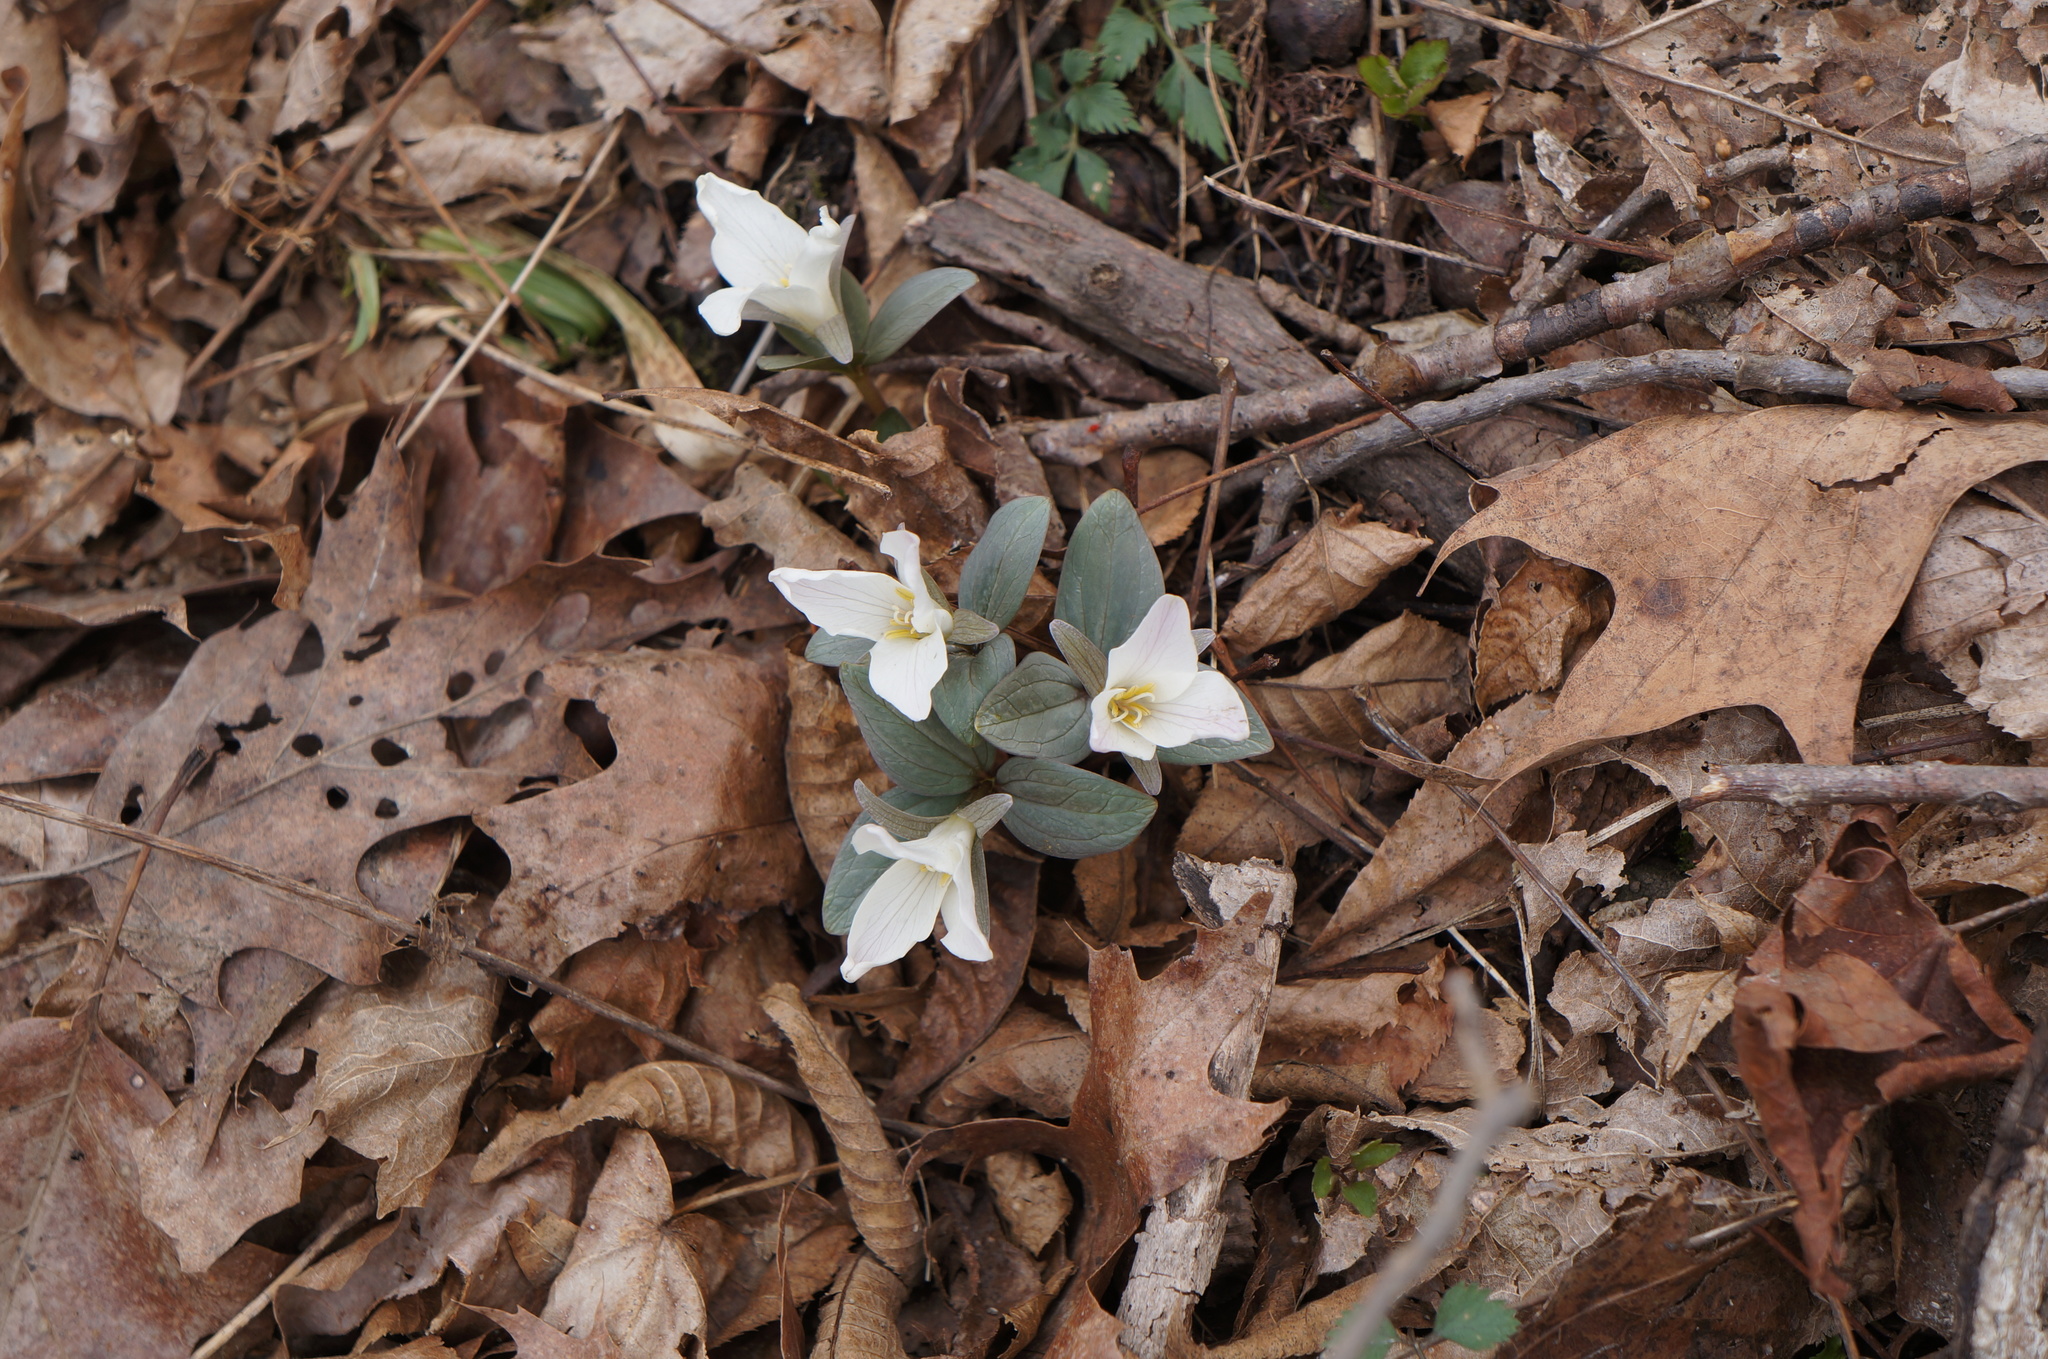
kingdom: Plantae
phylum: Tracheophyta
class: Liliopsida
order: Liliales
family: Melanthiaceae
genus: Trillium
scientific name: Trillium nivale
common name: Dwarf white trillium
